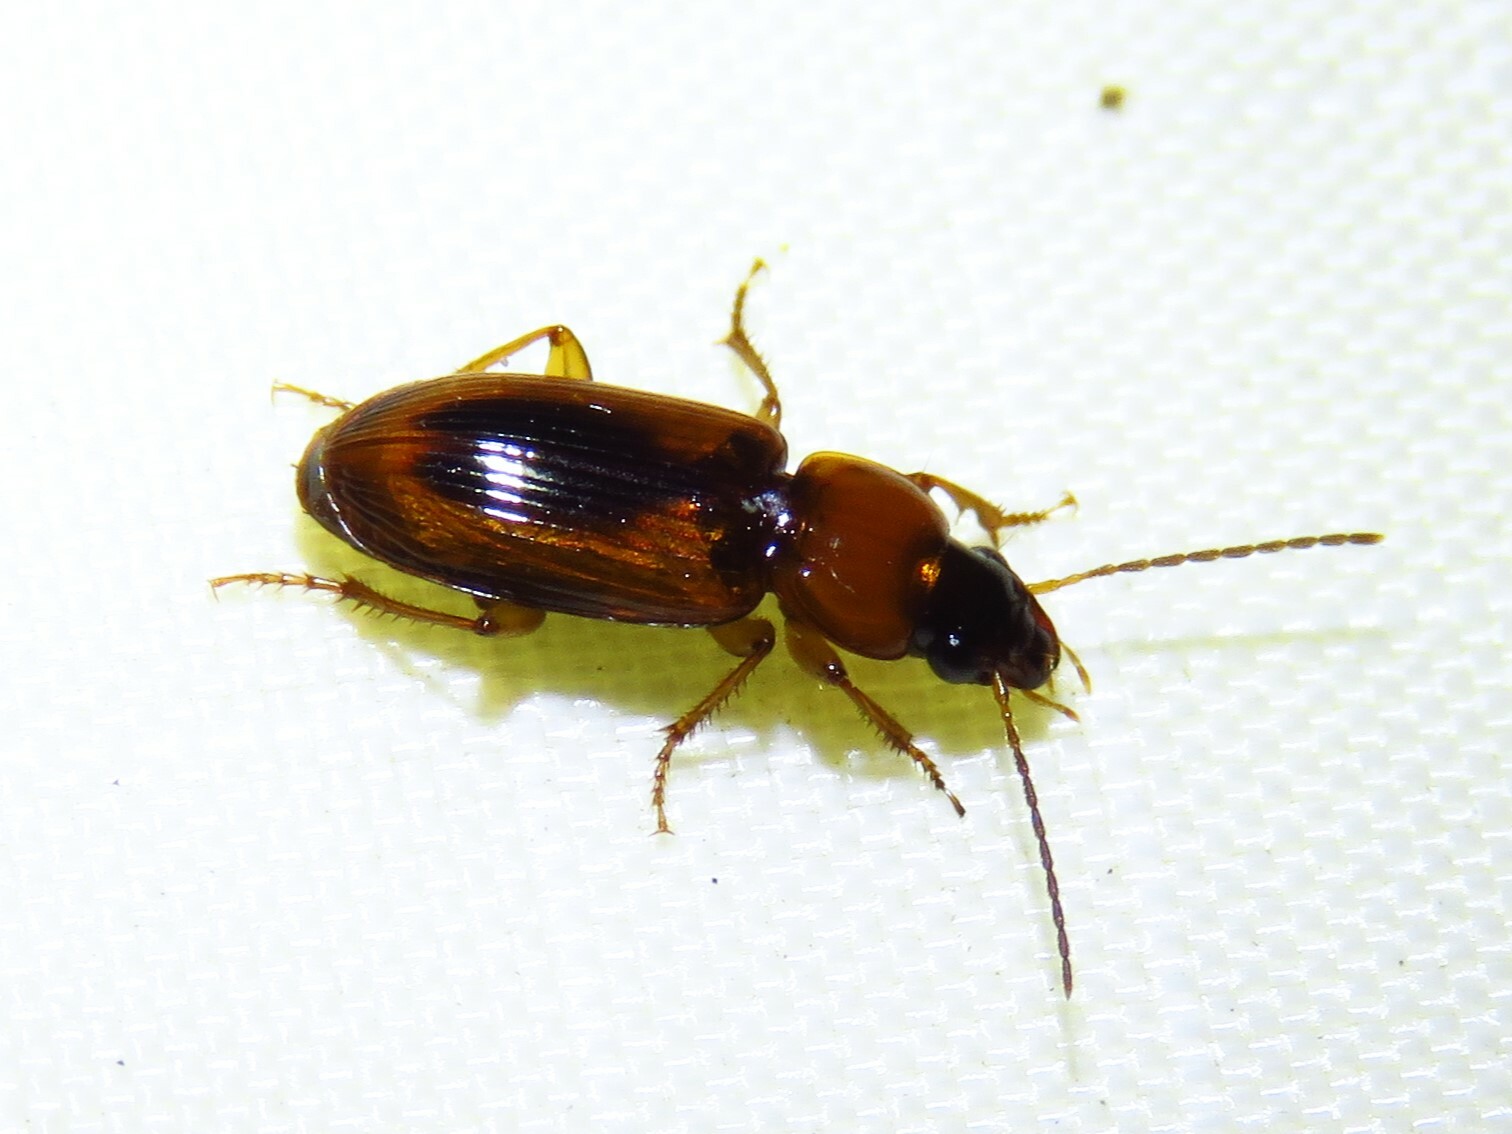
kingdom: Animalia
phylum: Arthropoda
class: Insecta
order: Coleoptera
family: Carabidae
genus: Stenolophus
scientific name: Stenolophus dissimilis
